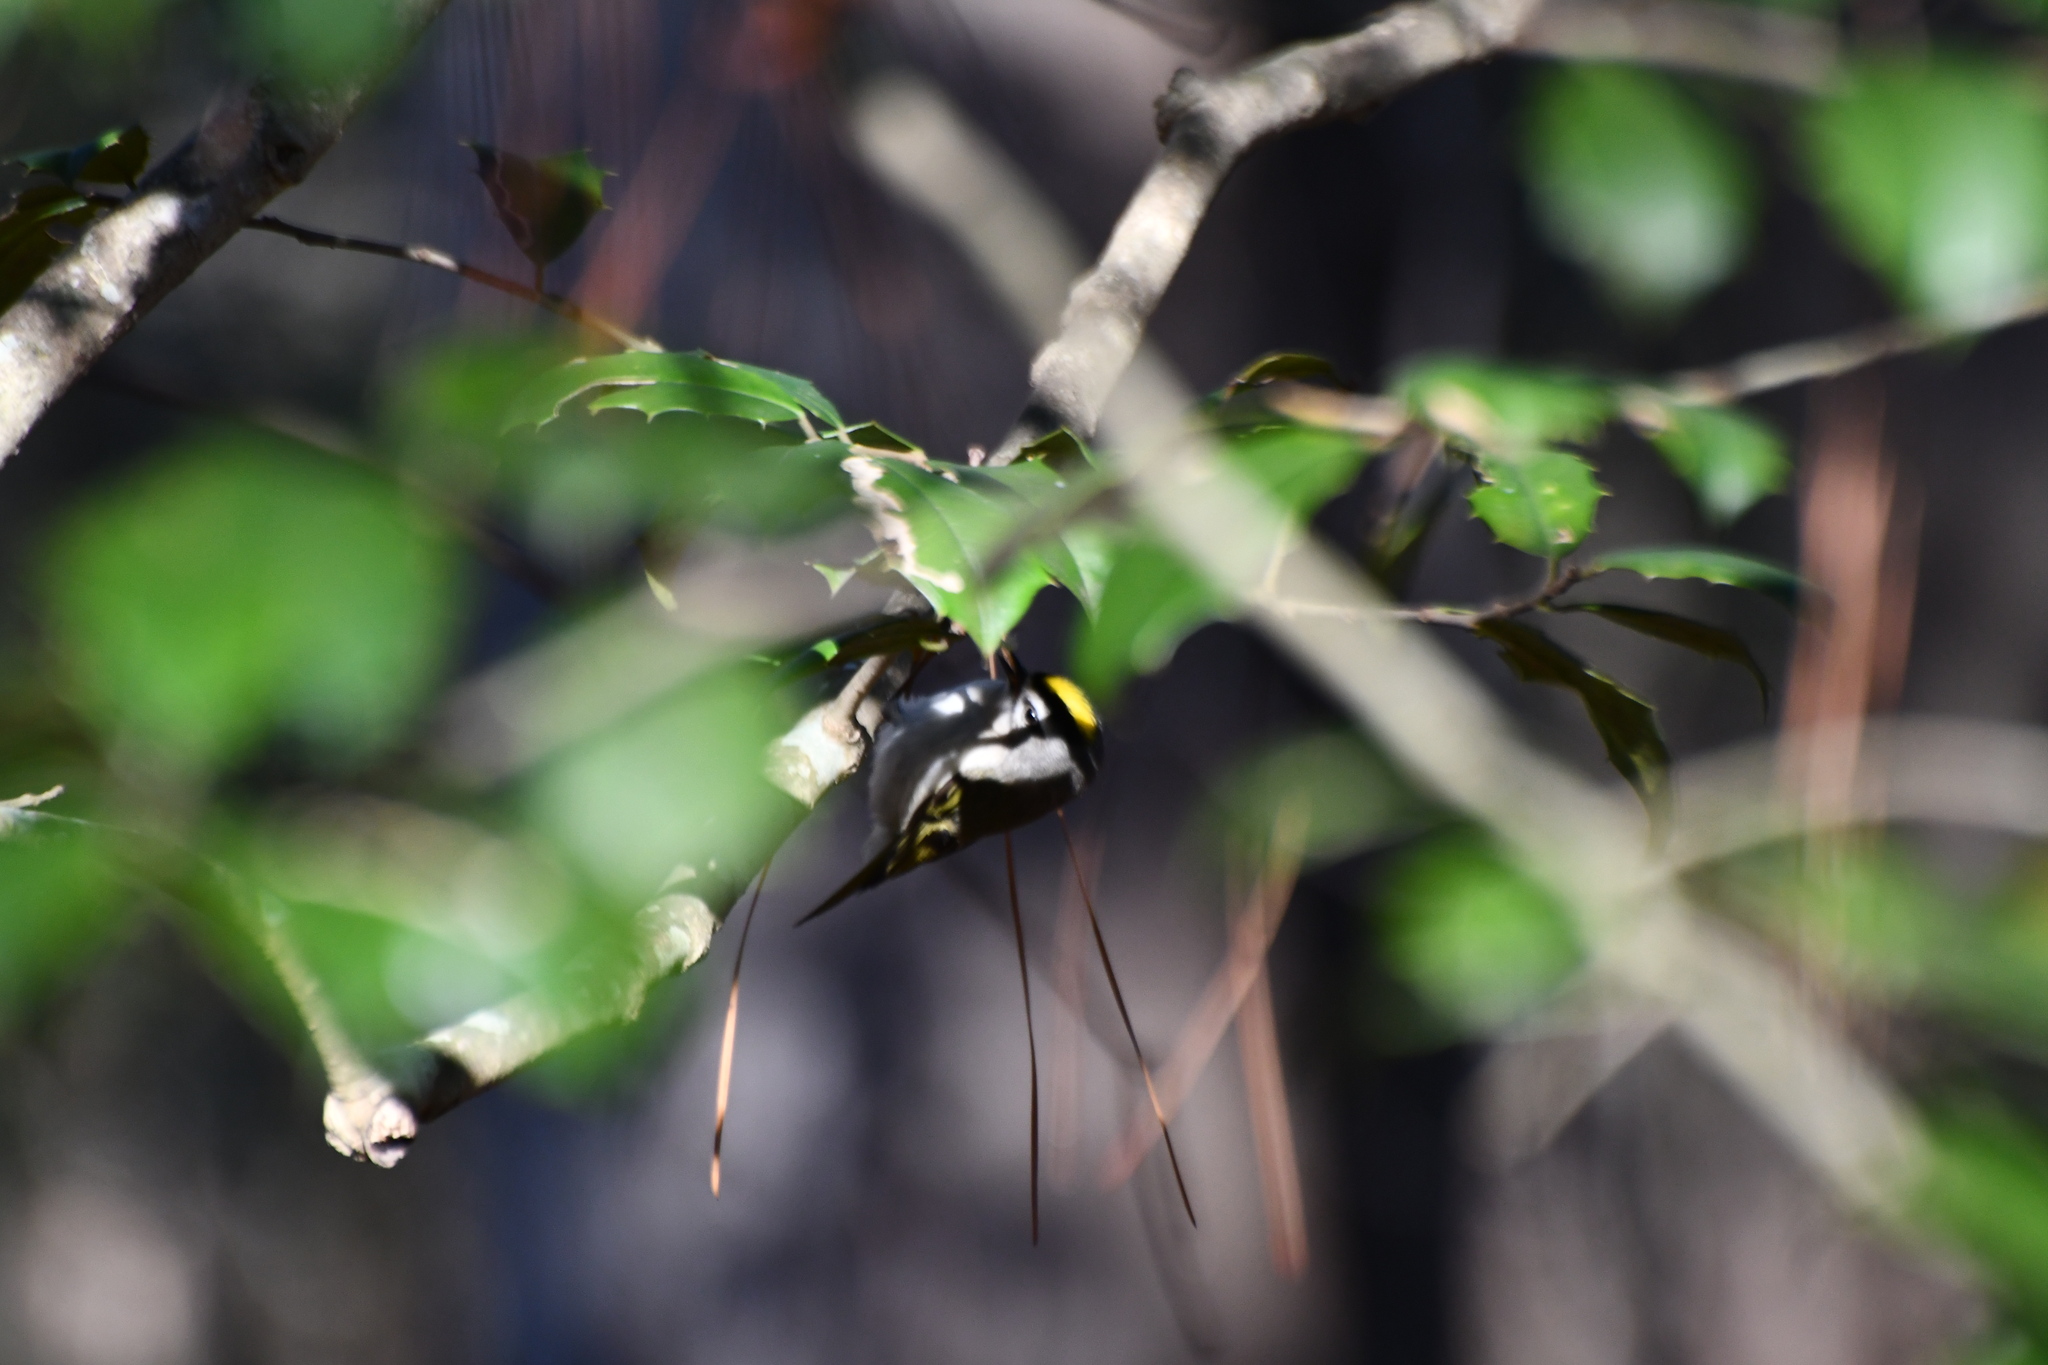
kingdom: Animalia
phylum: Chordata
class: Aves
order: Passeriformes
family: Regulidae
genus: Regulus
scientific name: Regulus satrapa
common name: Golden-crowned kinglet
